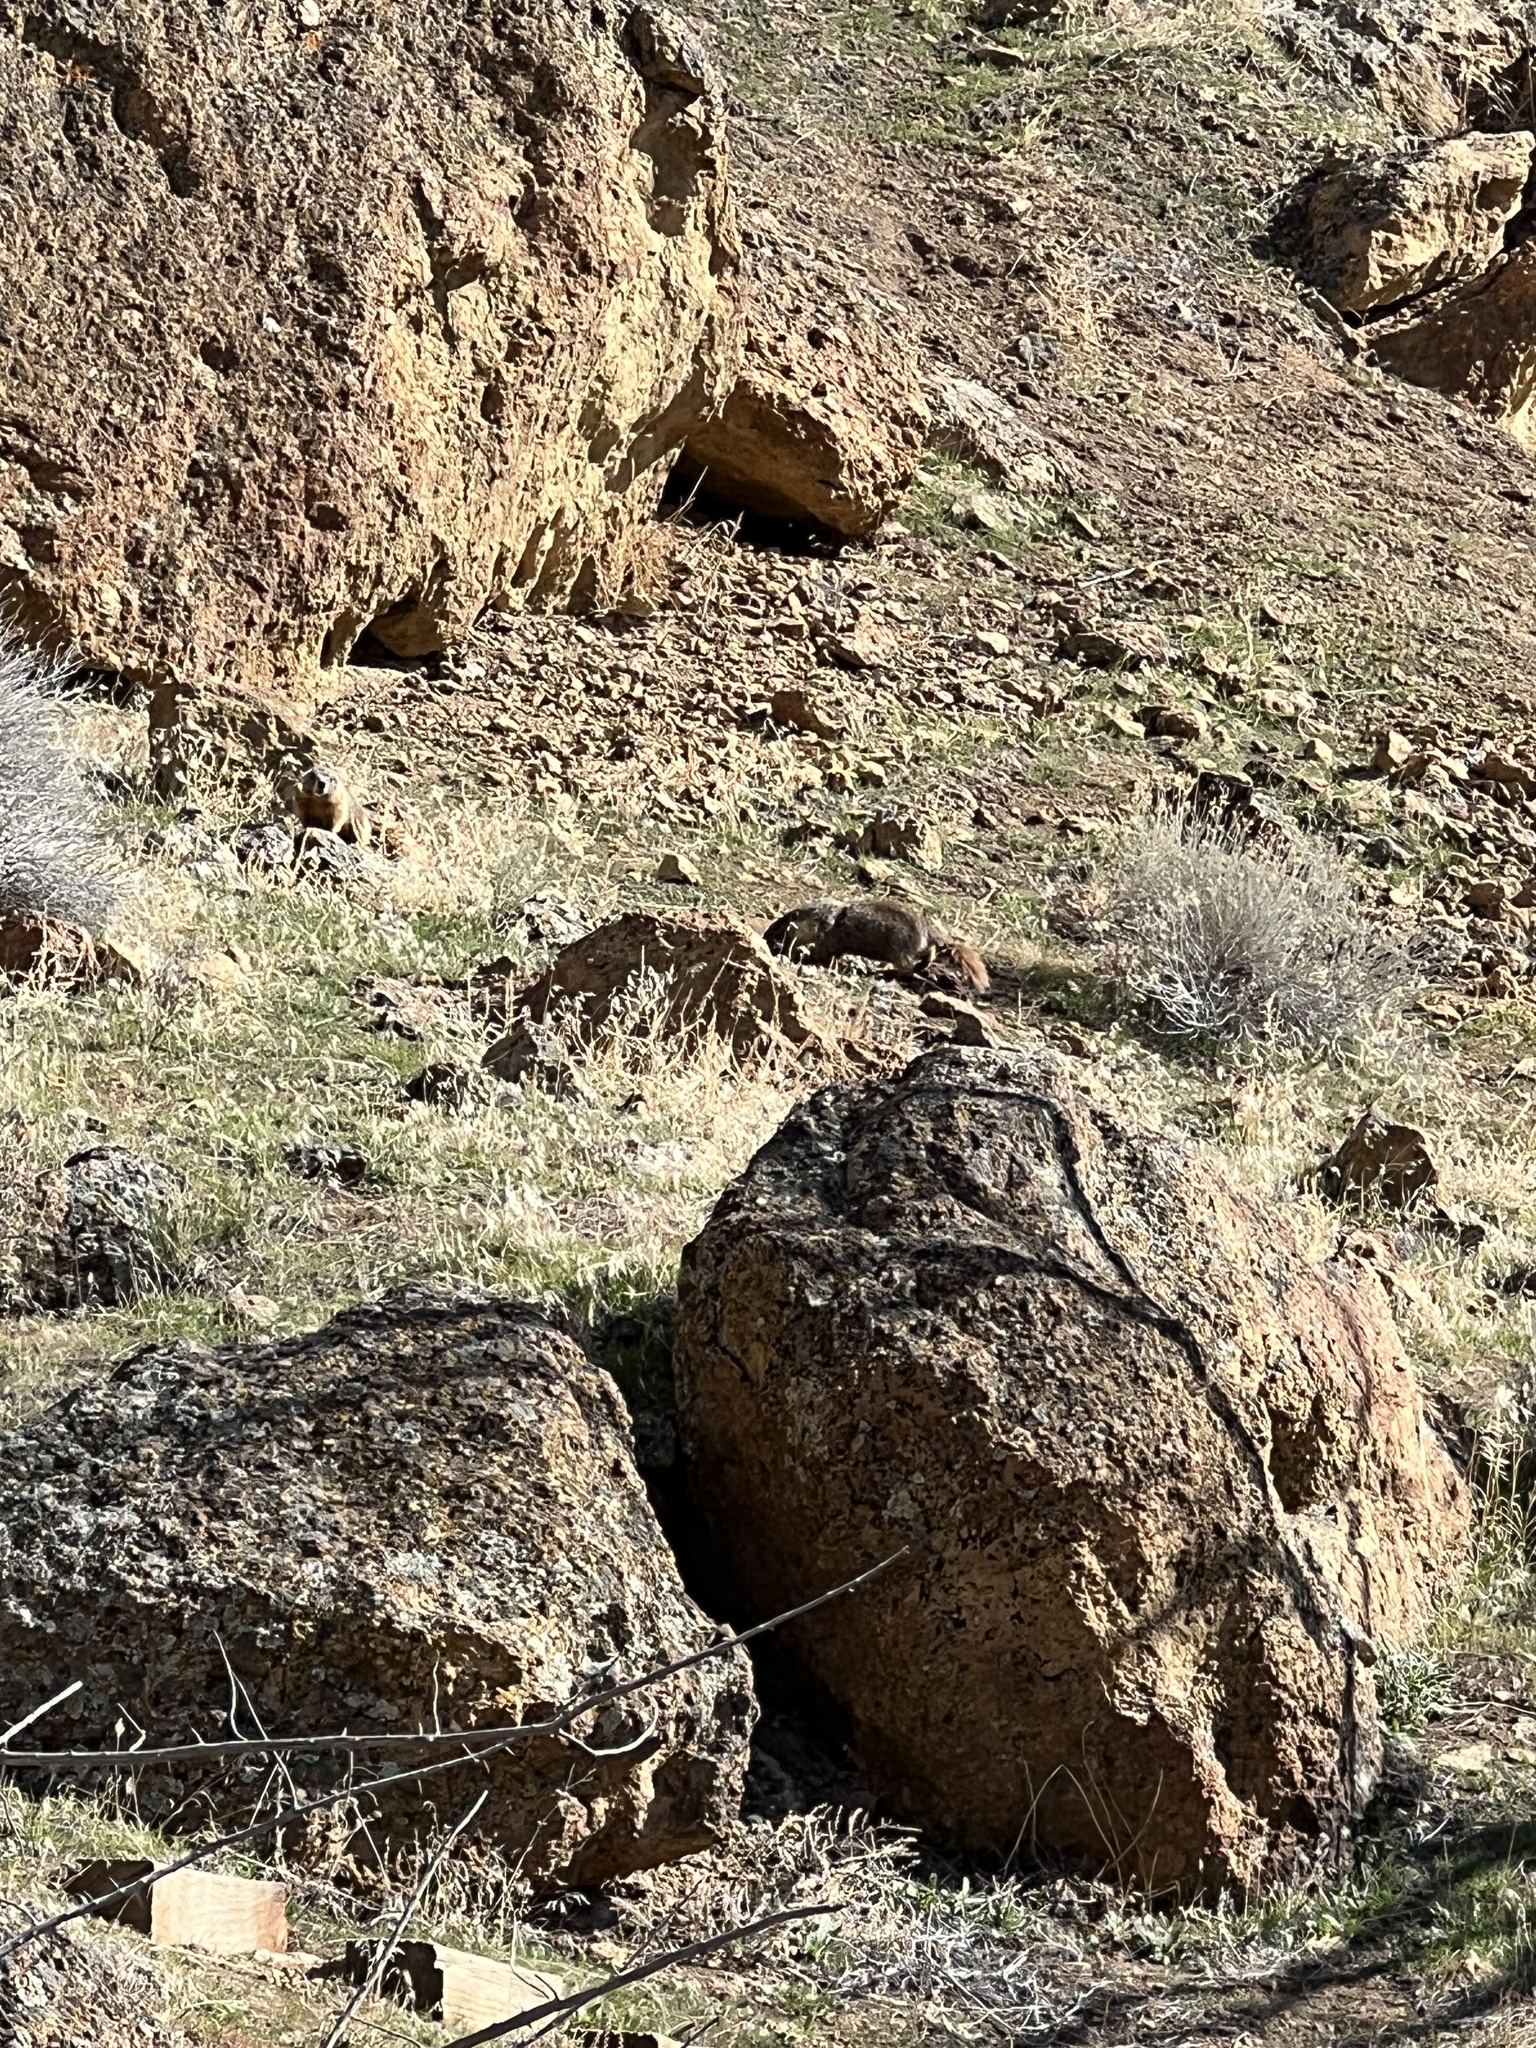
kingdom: Animalia
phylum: Chordata
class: Mammalia
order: Rodentia
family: Sciuridae
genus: Marmota
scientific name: Marmota flaviventris
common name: Yellow-bellied marmot
